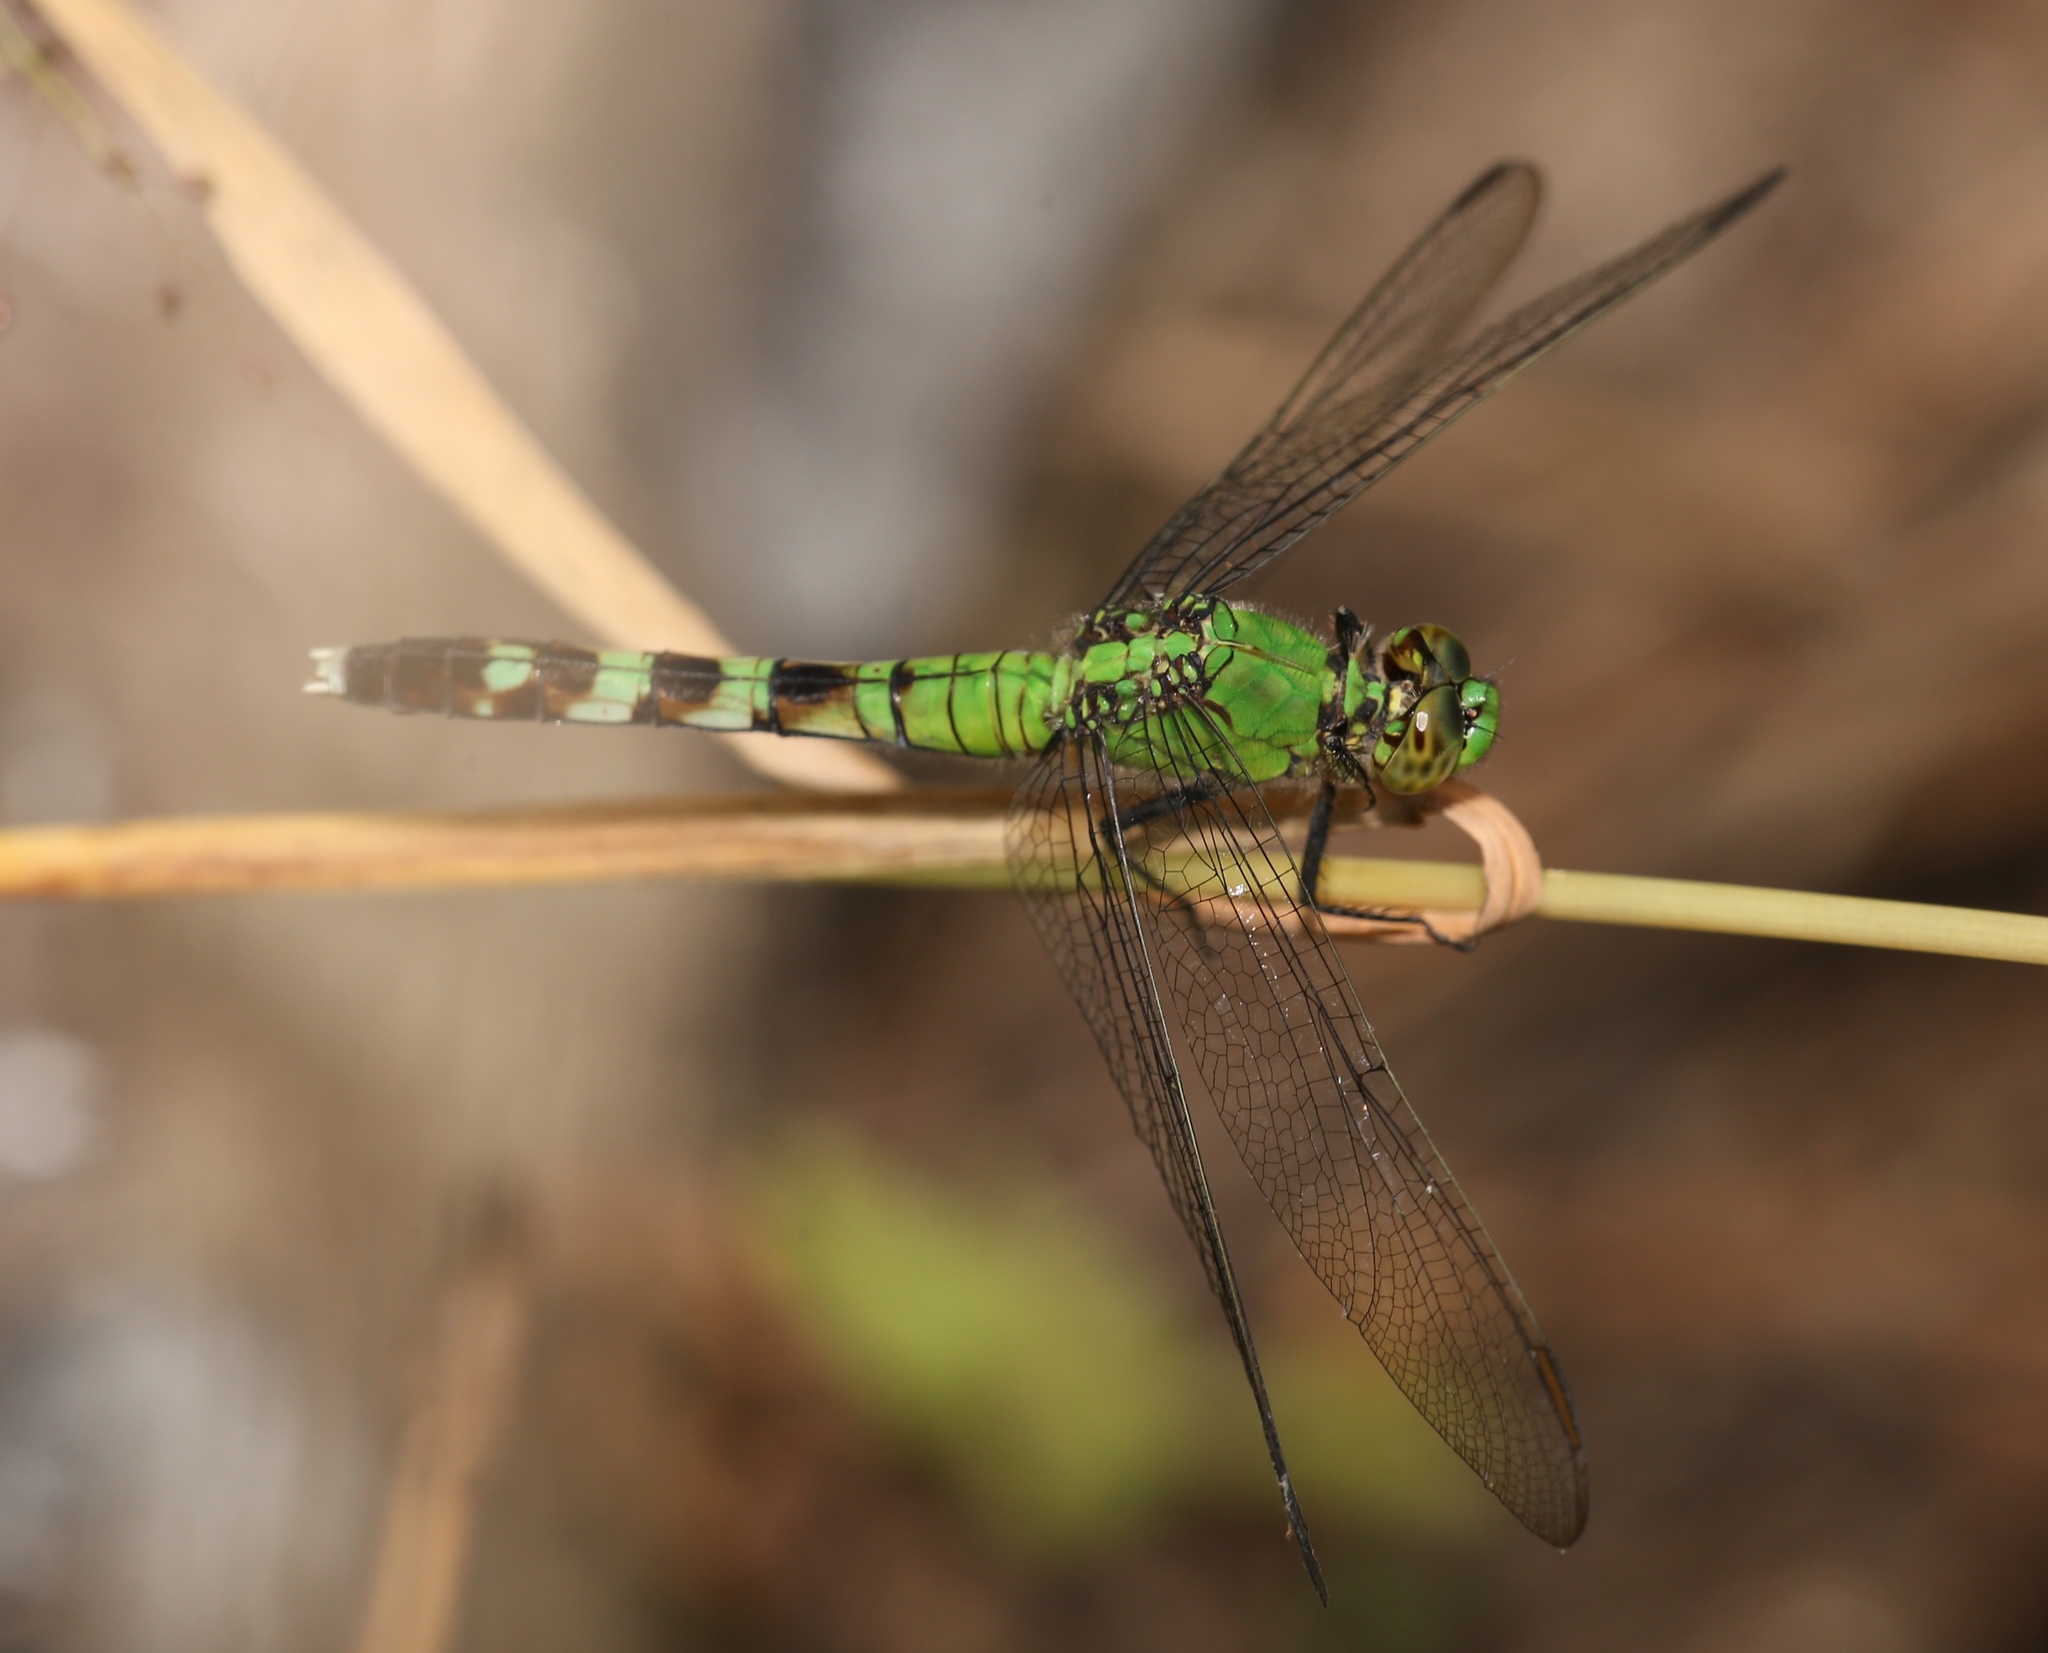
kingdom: Animalia
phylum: Arthropoda
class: Insecta
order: Odonata
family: Libellulidae
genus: Erythemis
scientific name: Erythemis simplicicollis
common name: Eastern pondhawk
